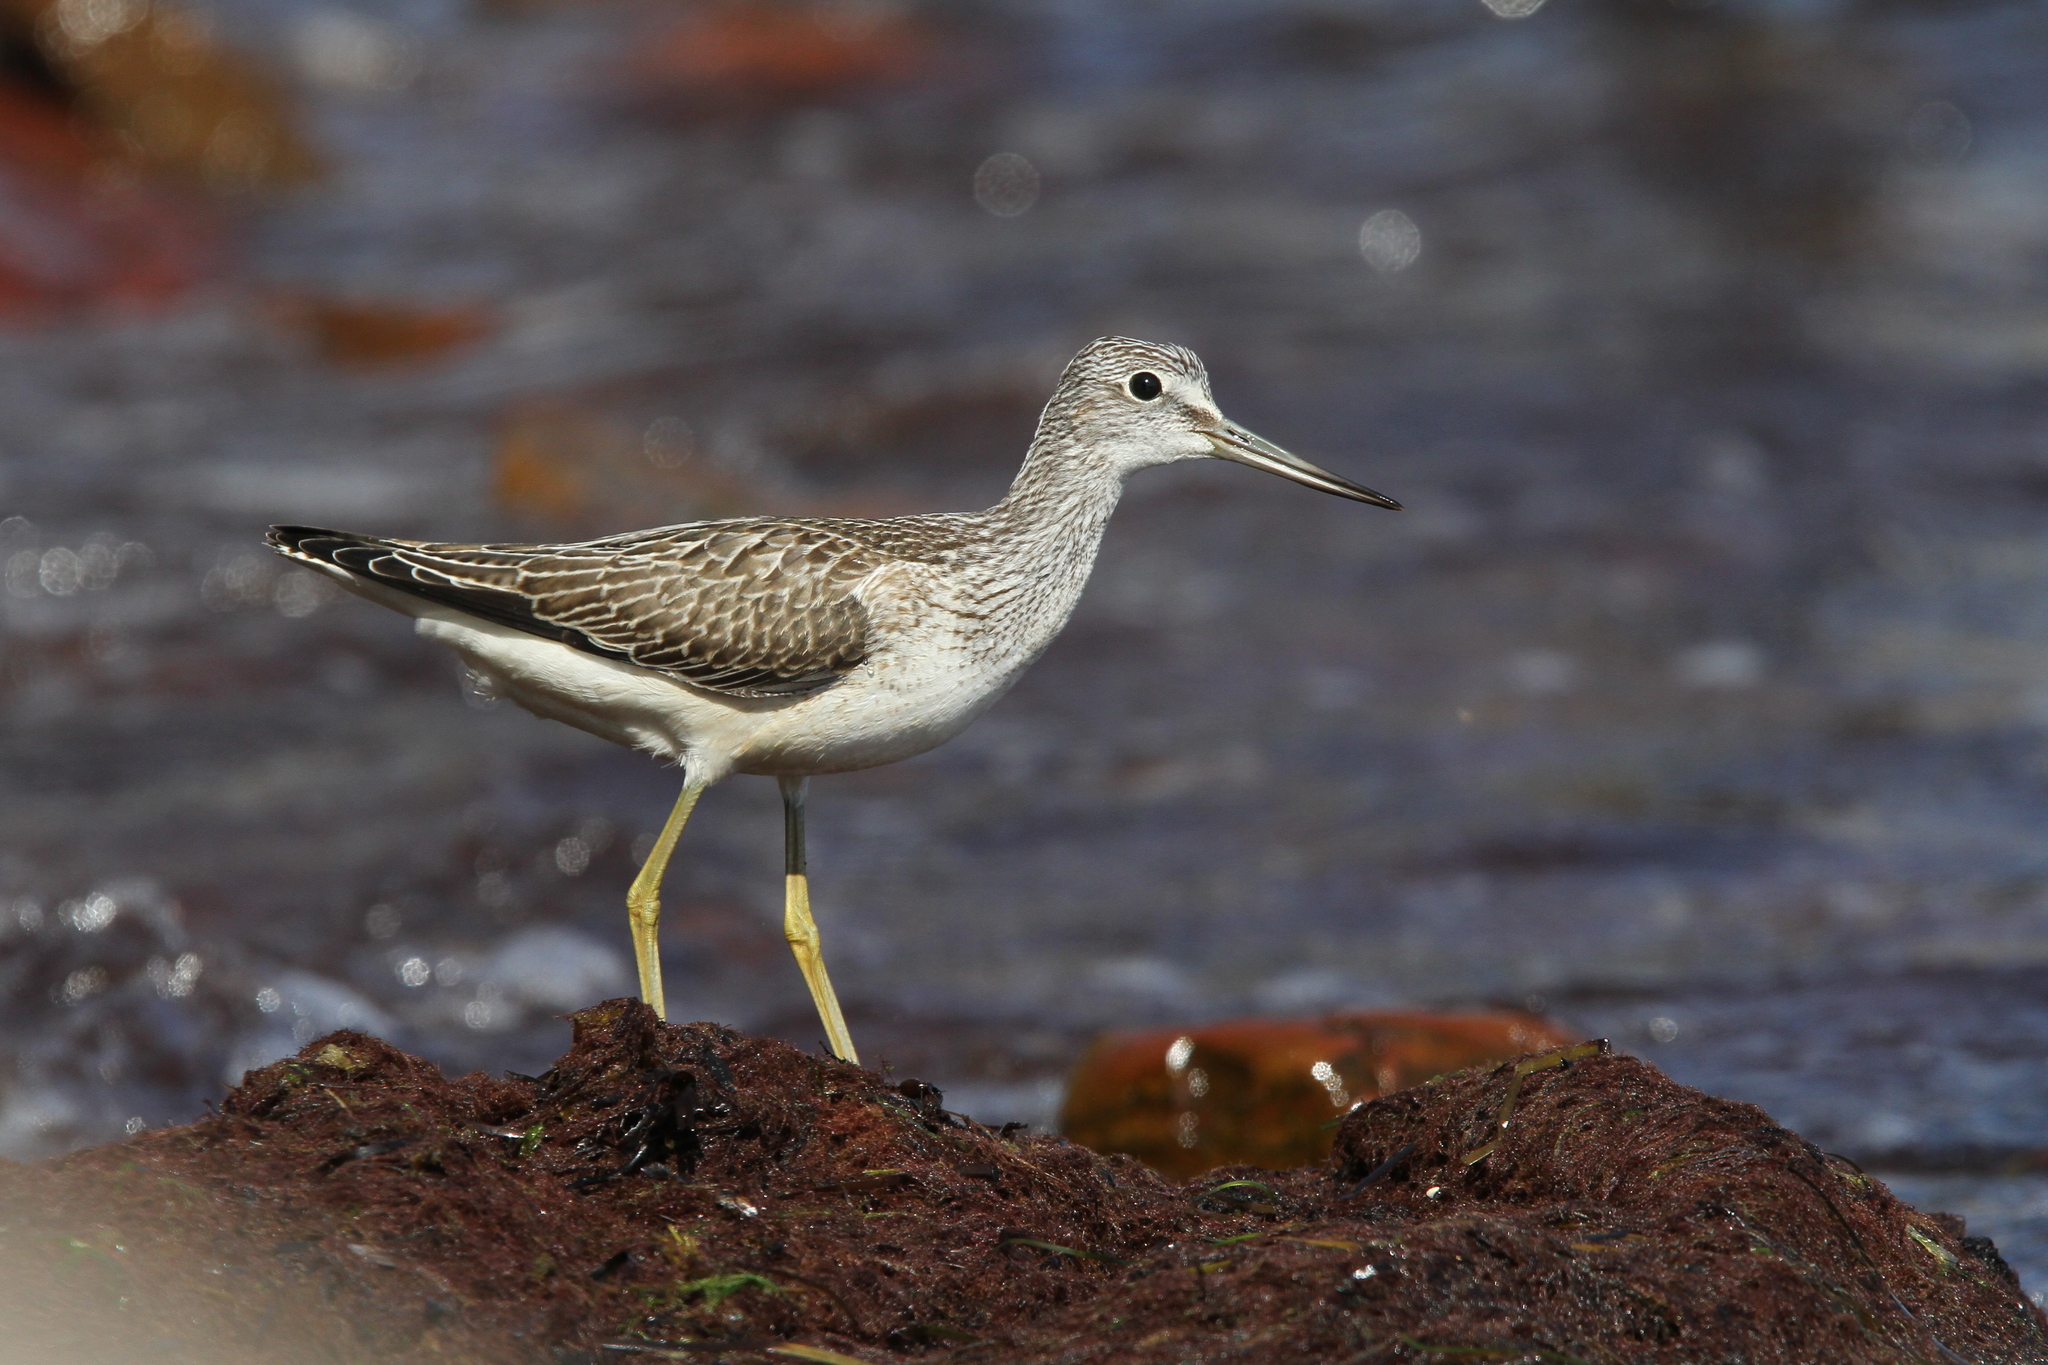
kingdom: Animalia
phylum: Chordata
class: Aves
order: Charadriiformes
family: Scolopacidae
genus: Tringa
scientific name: Tringa nebularia
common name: Common greenshank
